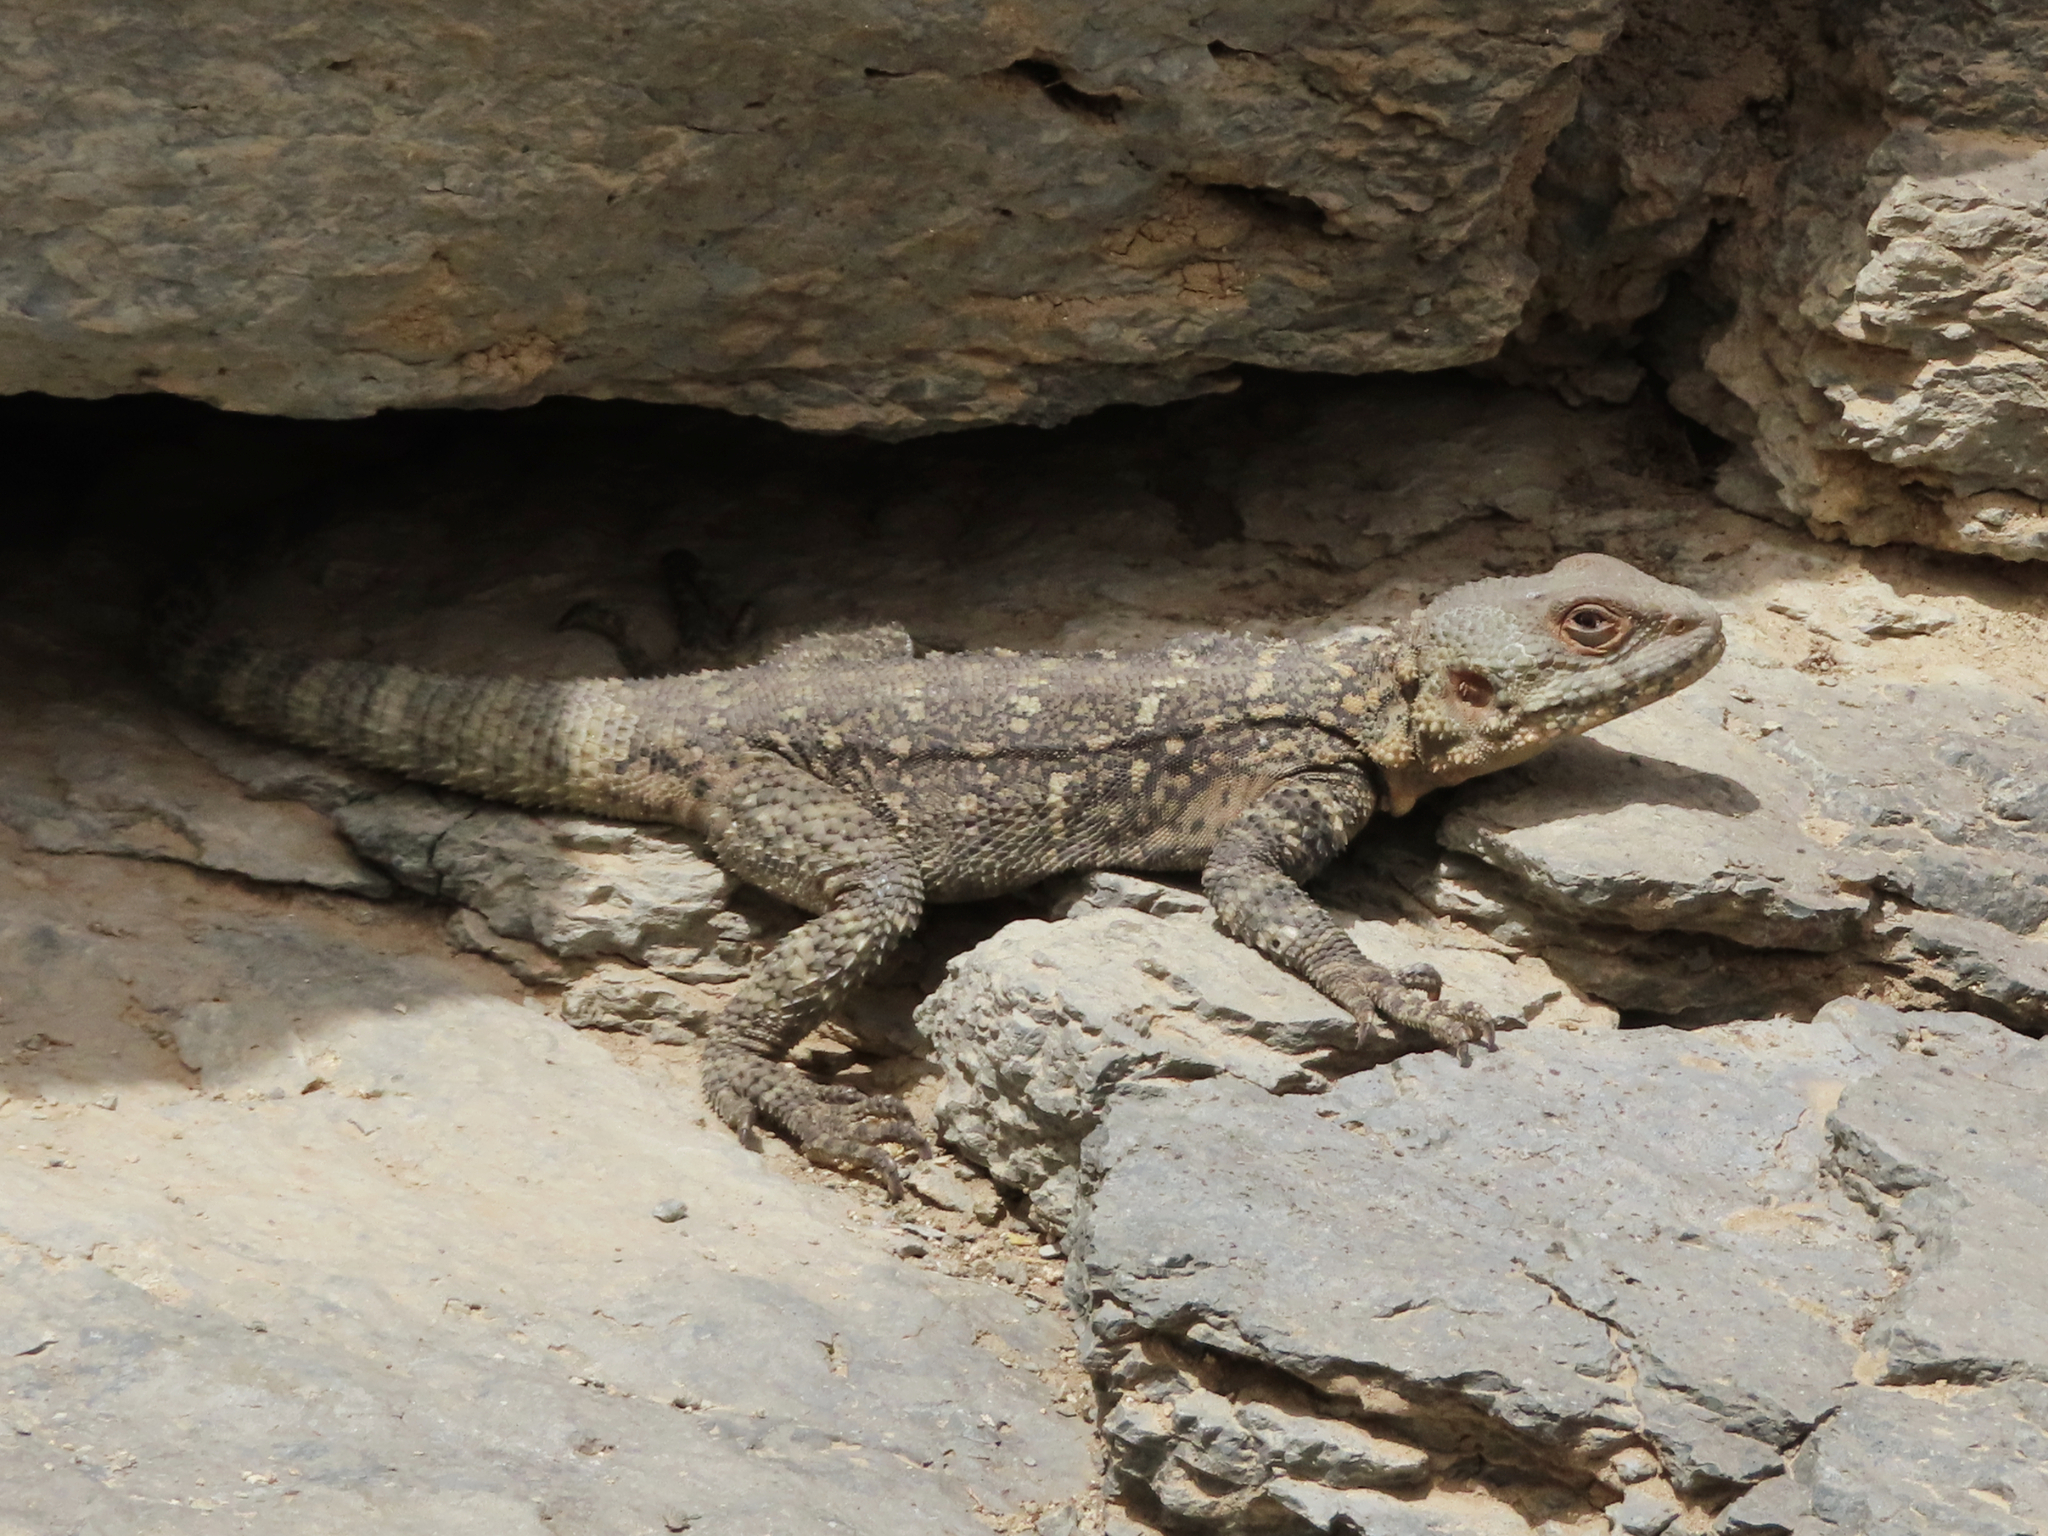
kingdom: Animalia
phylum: Chordata
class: Squamata
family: Agamidae
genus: Paralaudakia
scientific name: Paralaudakia caucasia
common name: Caucasian agama
